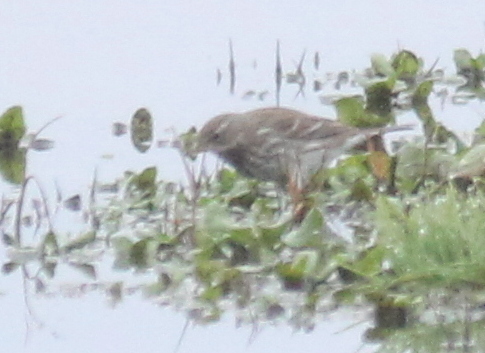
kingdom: Animalia
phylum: Chordata
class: Aves
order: Passeriformes
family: Motacillidae
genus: Anthus
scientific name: Anthus spinoletta
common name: Water pipit
